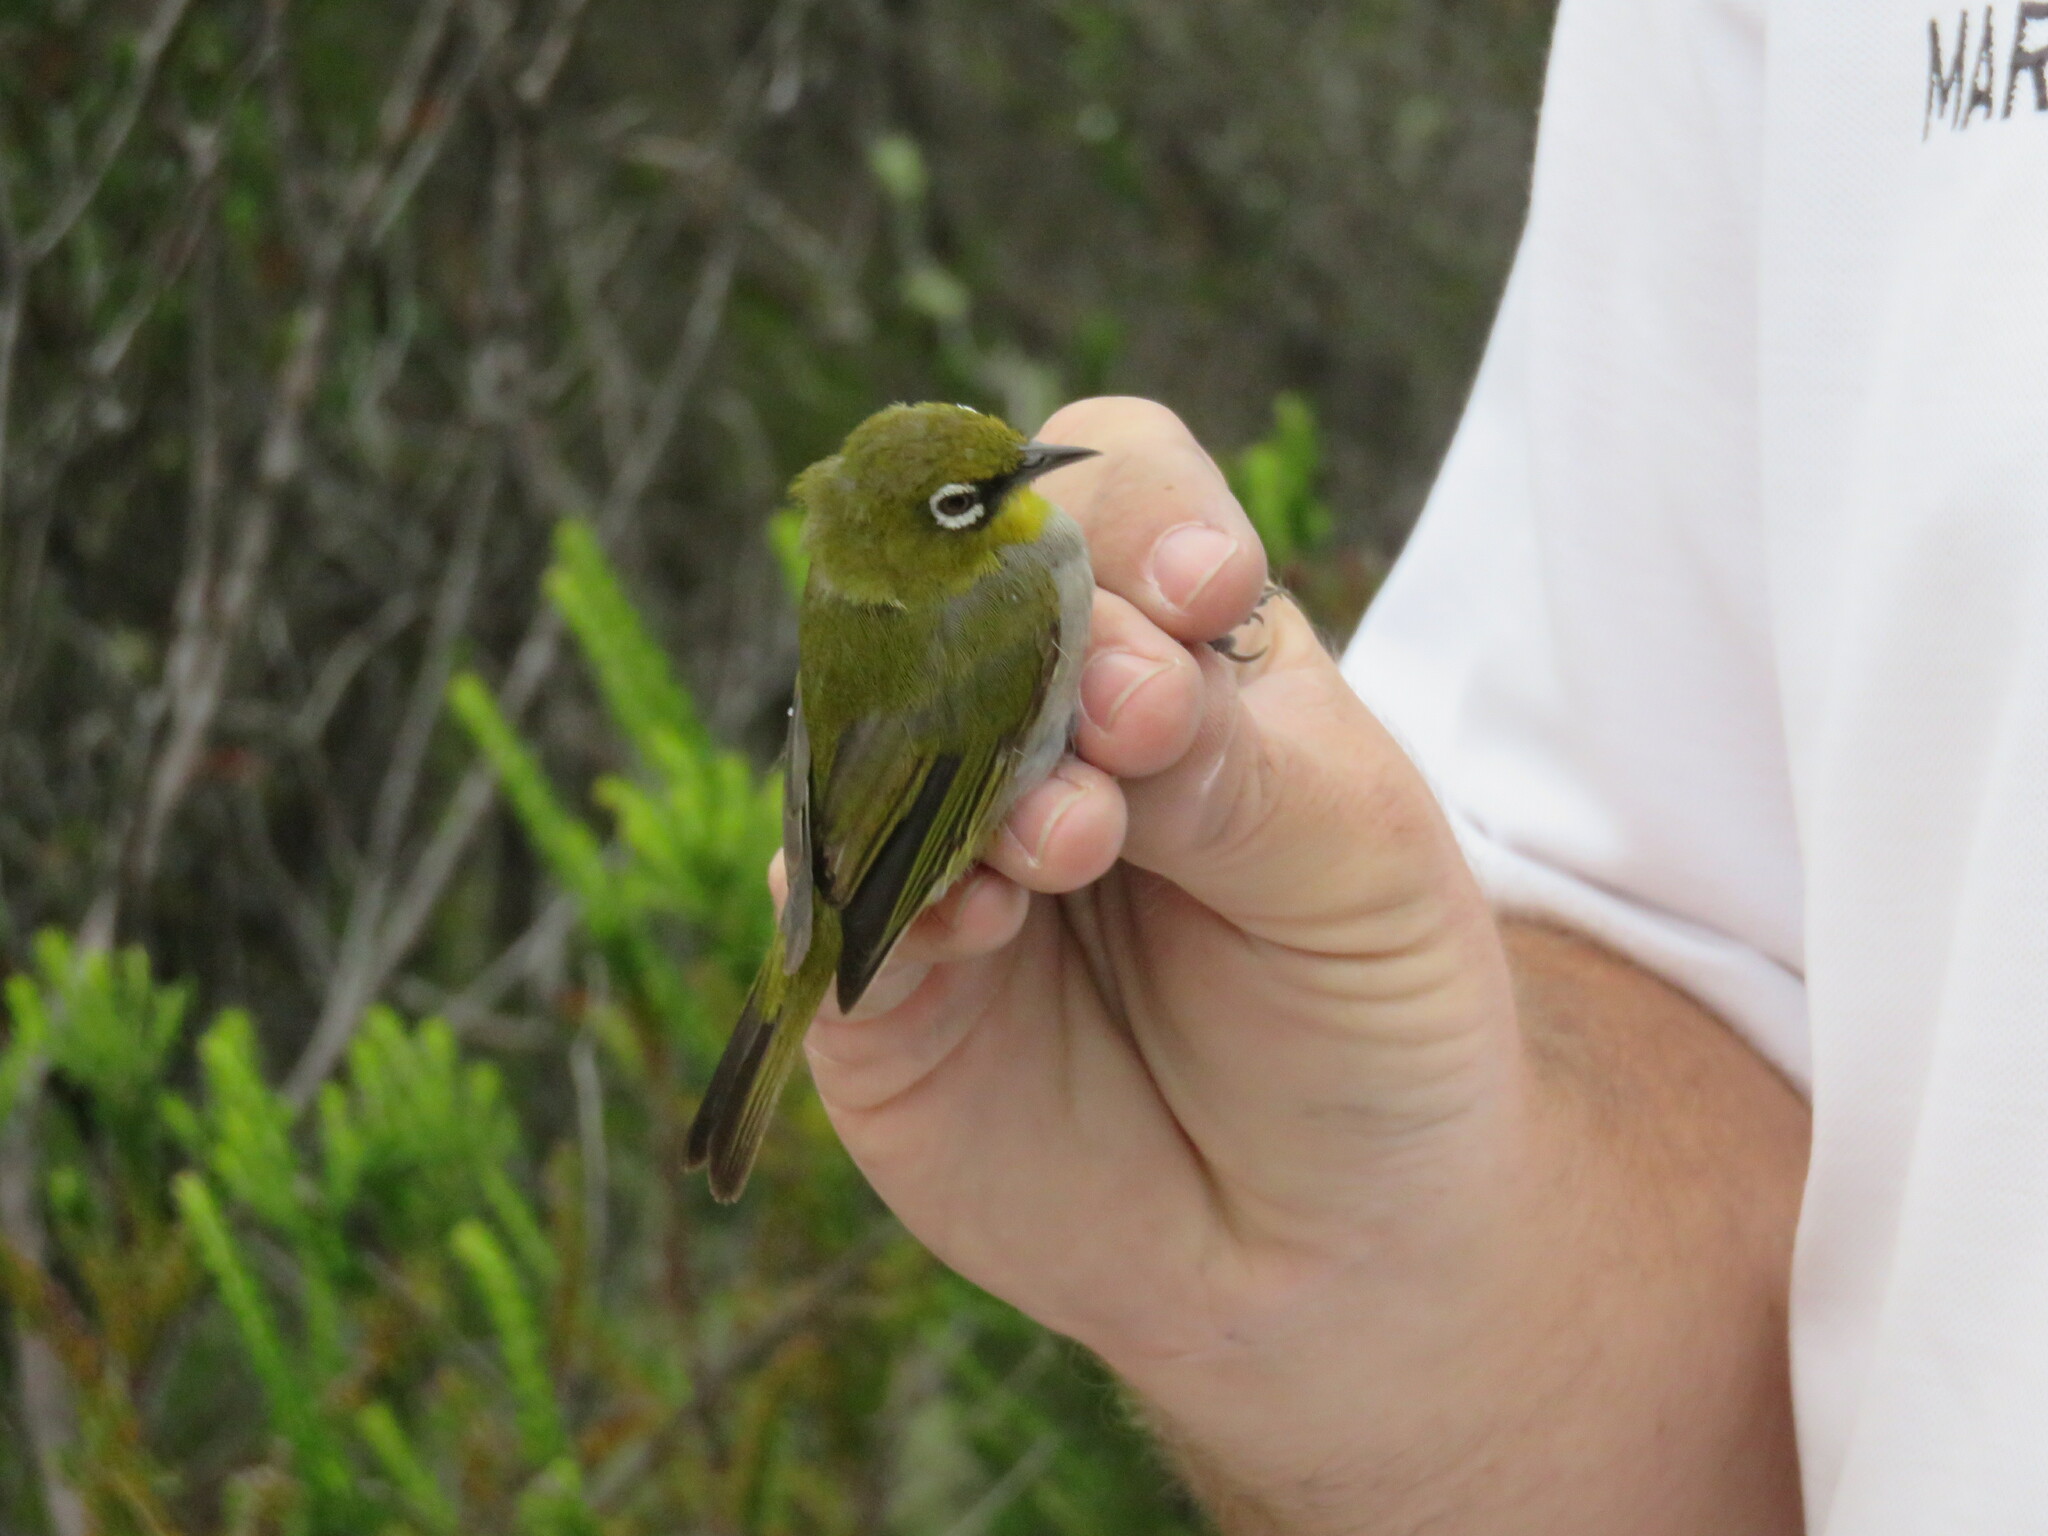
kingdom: Animalia
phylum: Chordata
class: Aves
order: Passeriformes
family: Zosteropidae
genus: Zosterops
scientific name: Zosterops virens
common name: Cape white-eye
